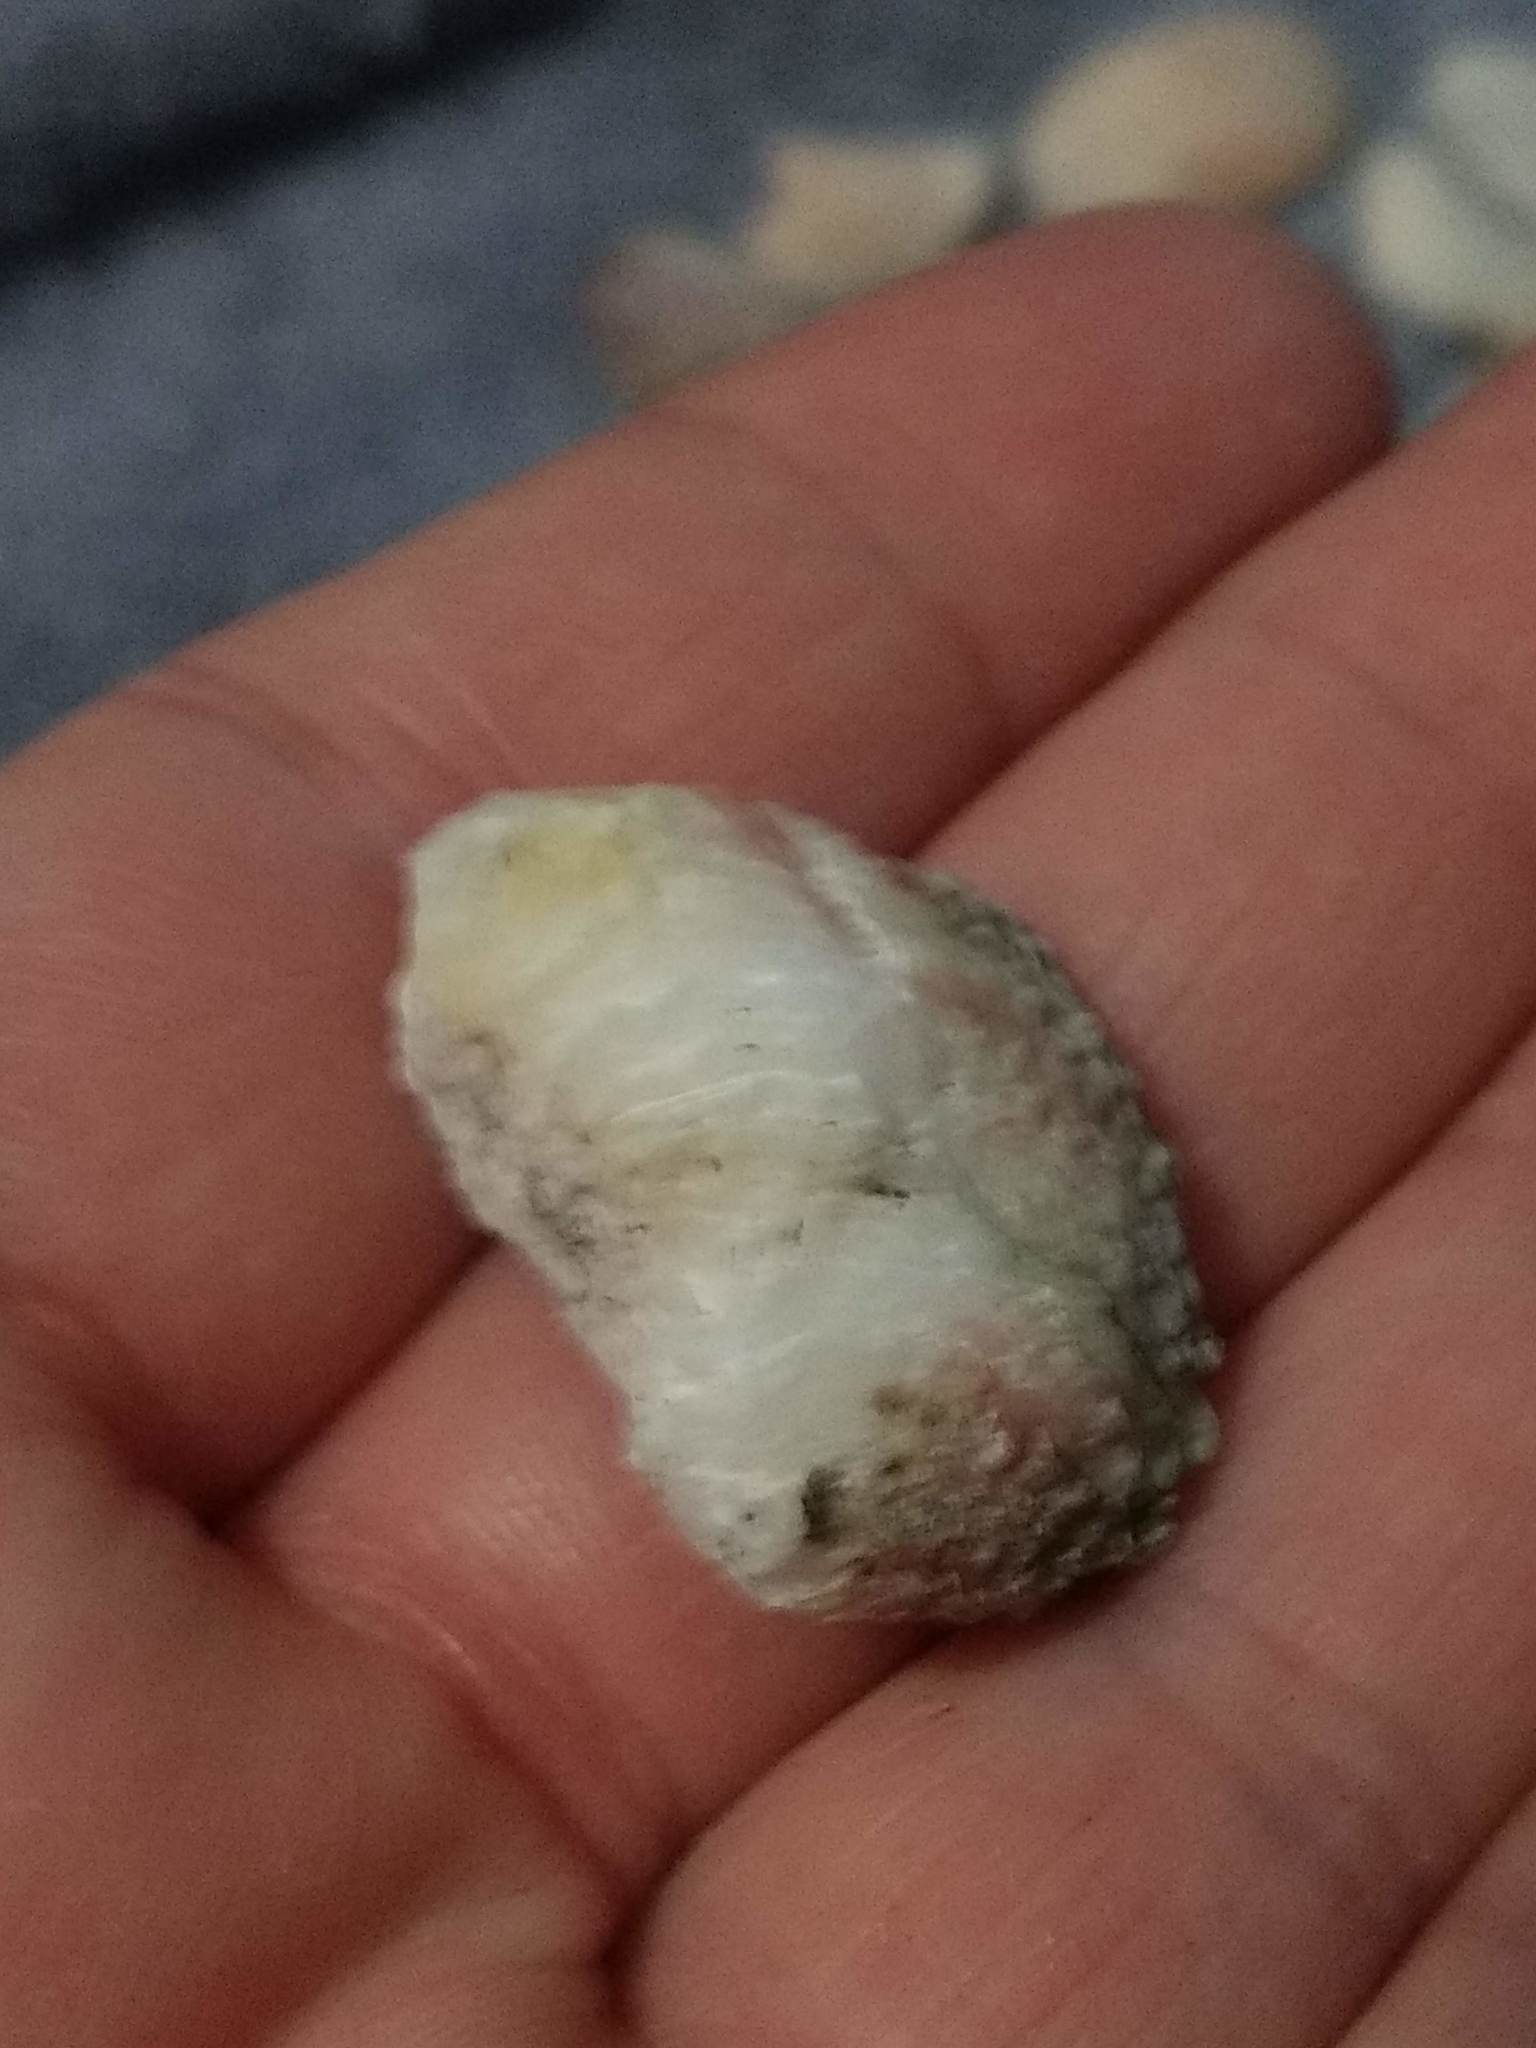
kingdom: Animalia
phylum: Mollusca
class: Bivalvia
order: Venerida
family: Chamidae
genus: Chama
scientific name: Chama arcana
